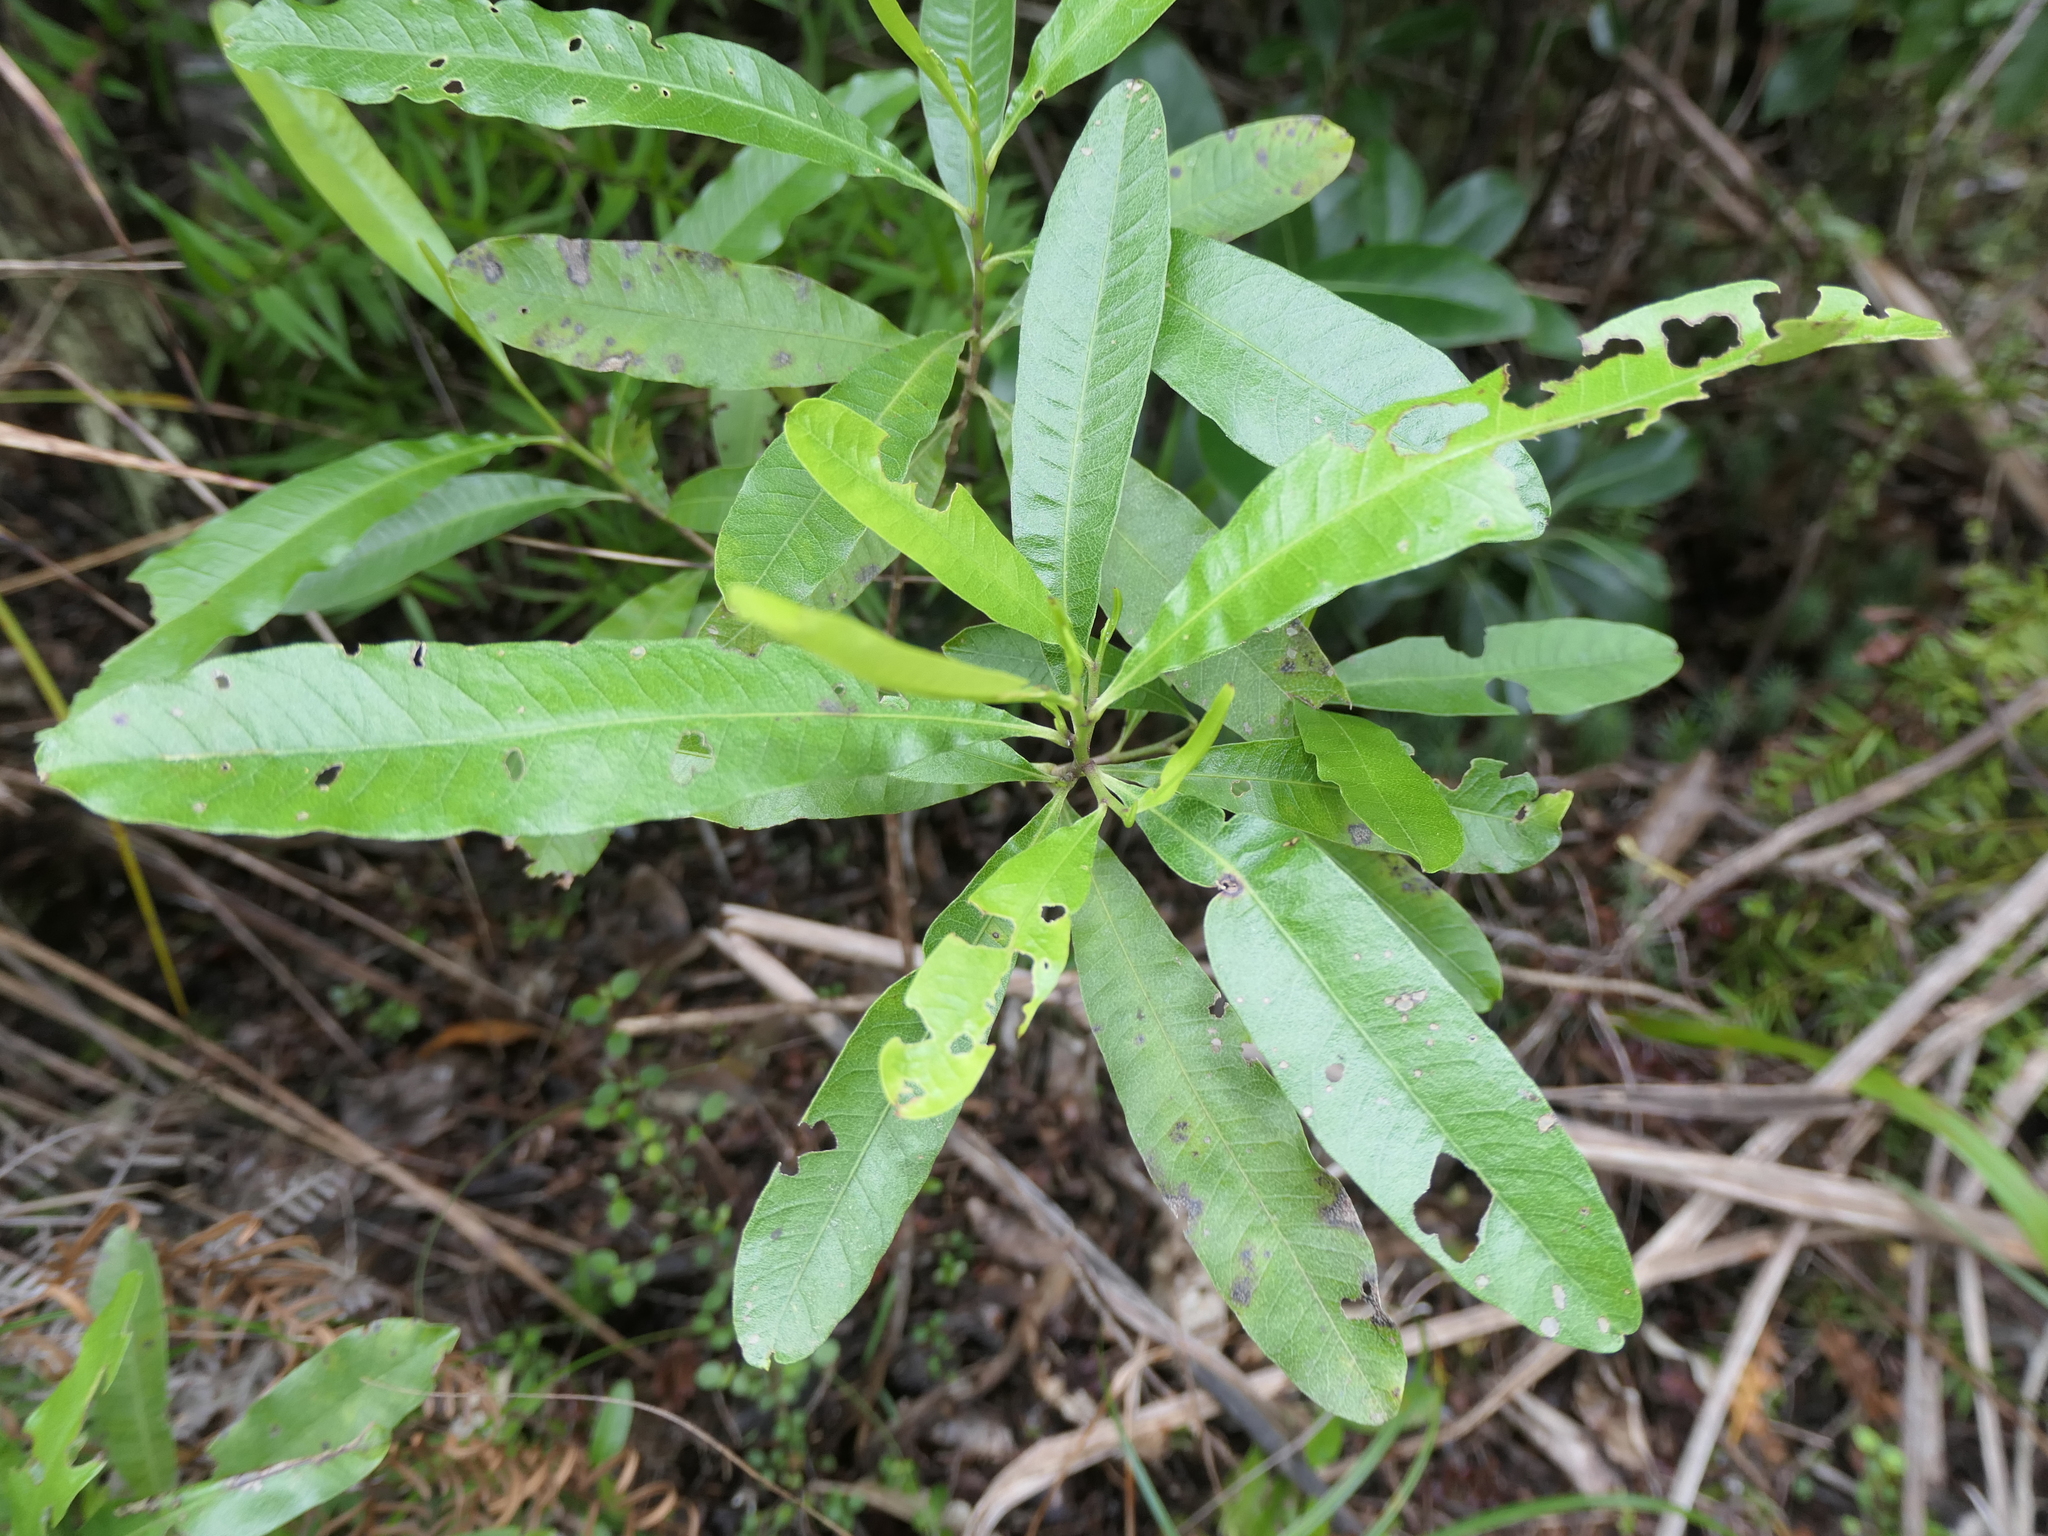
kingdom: Plantae
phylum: Tracheophyta
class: Magnoliopsida
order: Sapindales
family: Sapindaceae
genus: Dodonaea
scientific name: Dodonaea viscosa
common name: Hopbush
